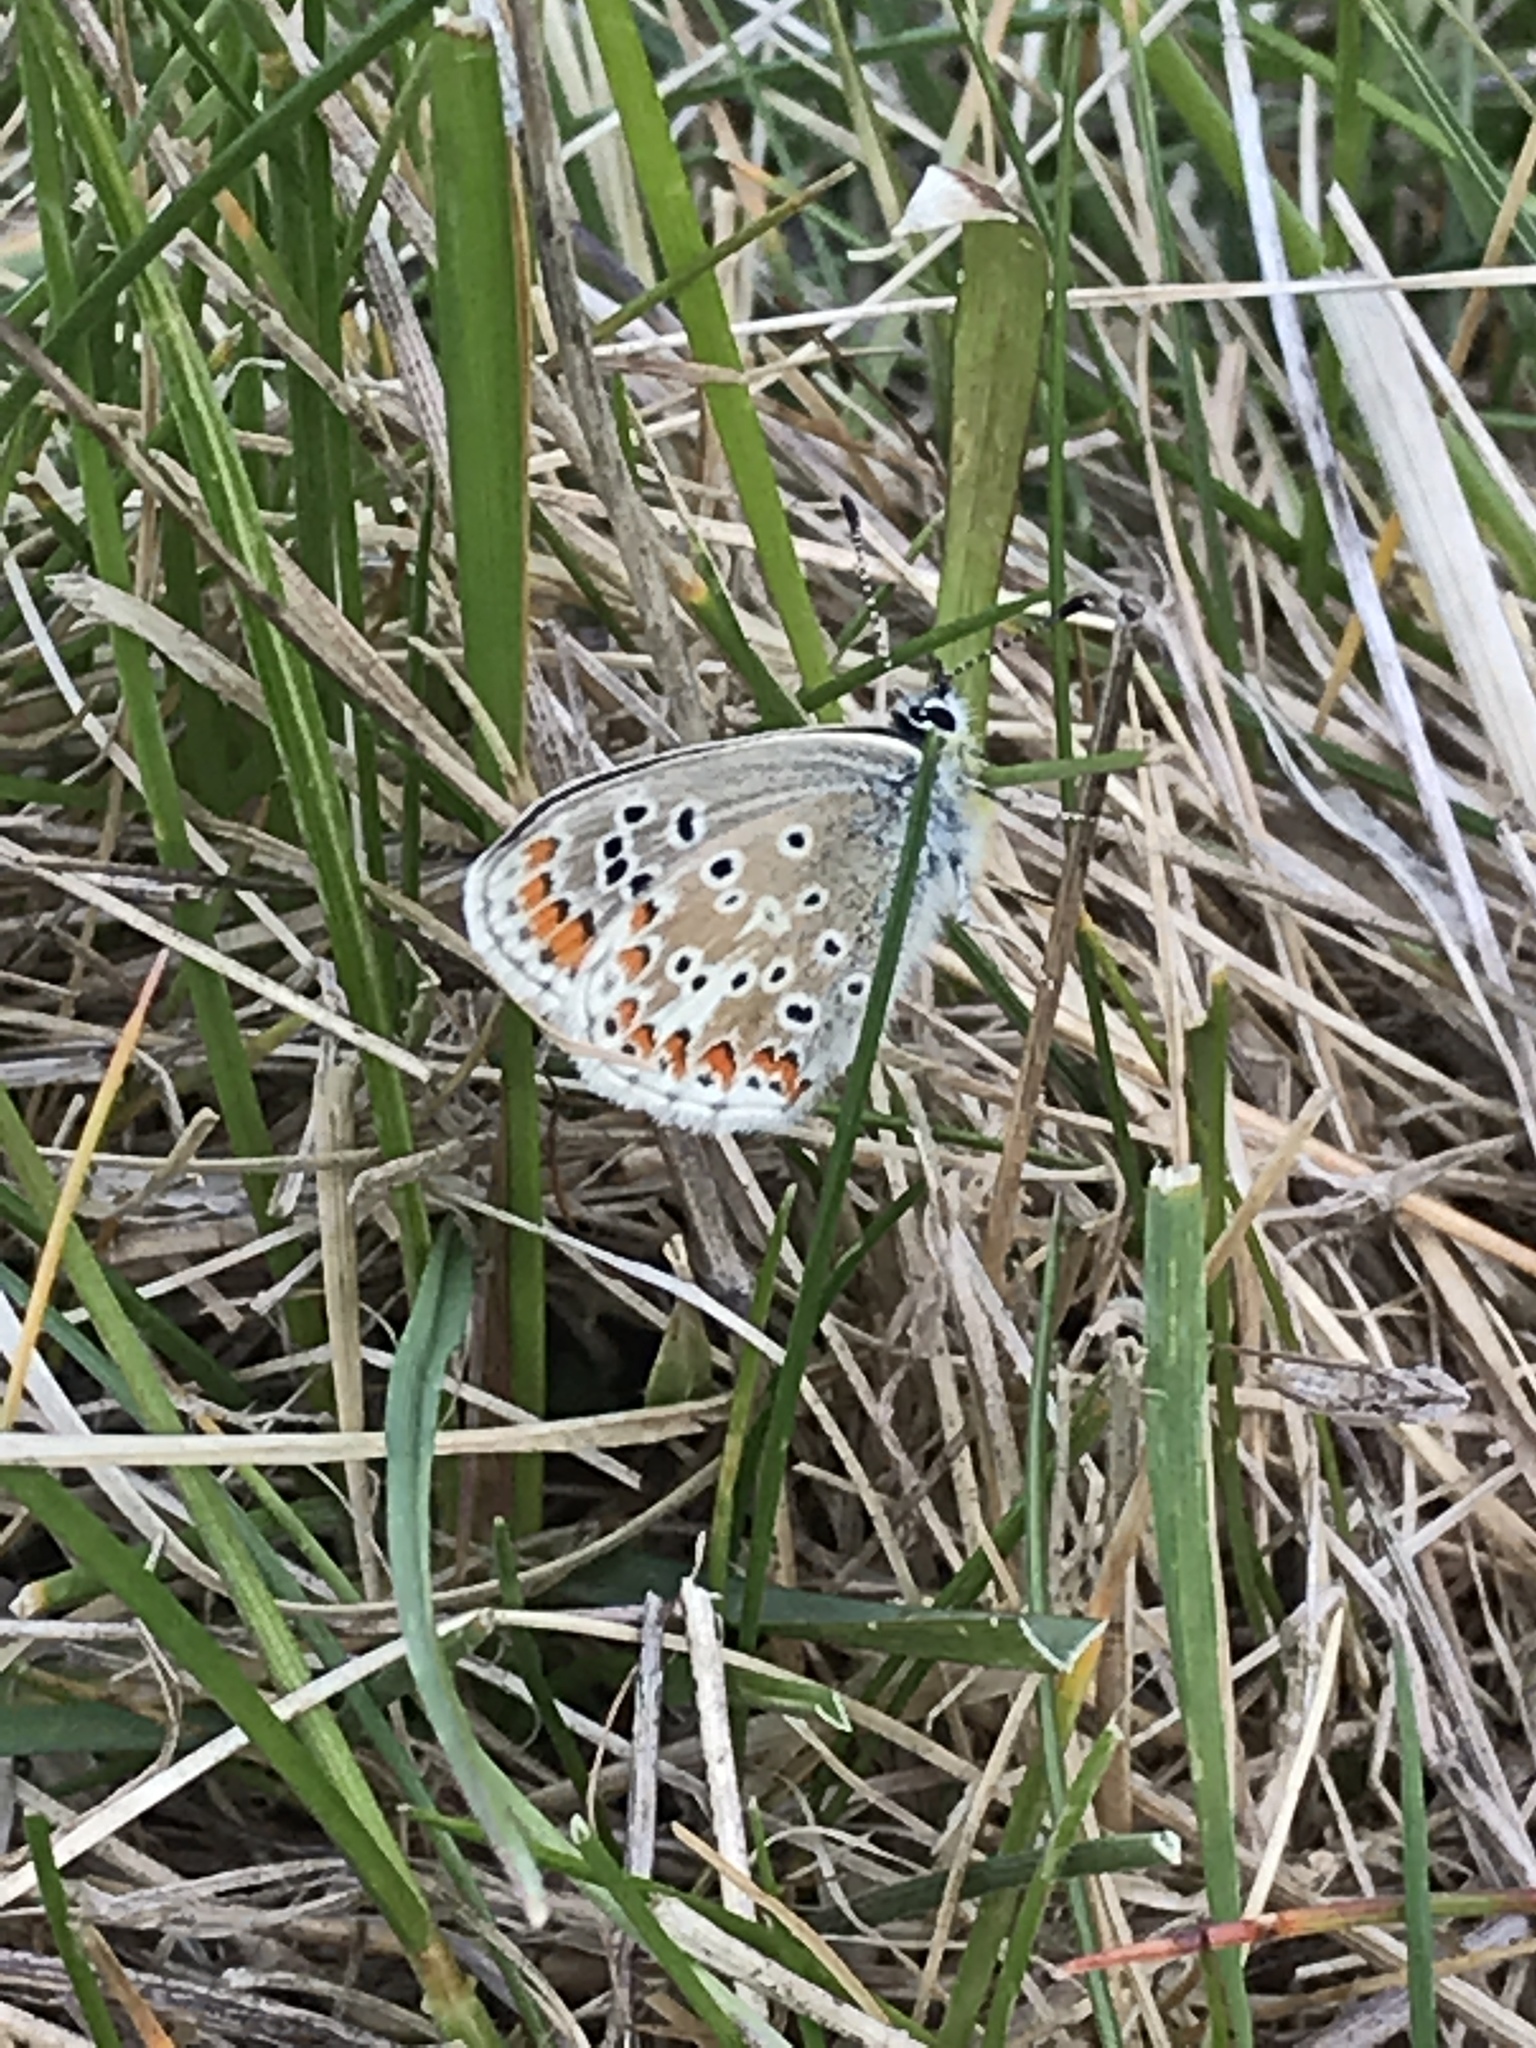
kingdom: Animalia
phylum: Arthropoda
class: Insecta
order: Lepidoptera
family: Lycaenidae
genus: Aricia
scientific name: Aricia agestis
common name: Brown argus
